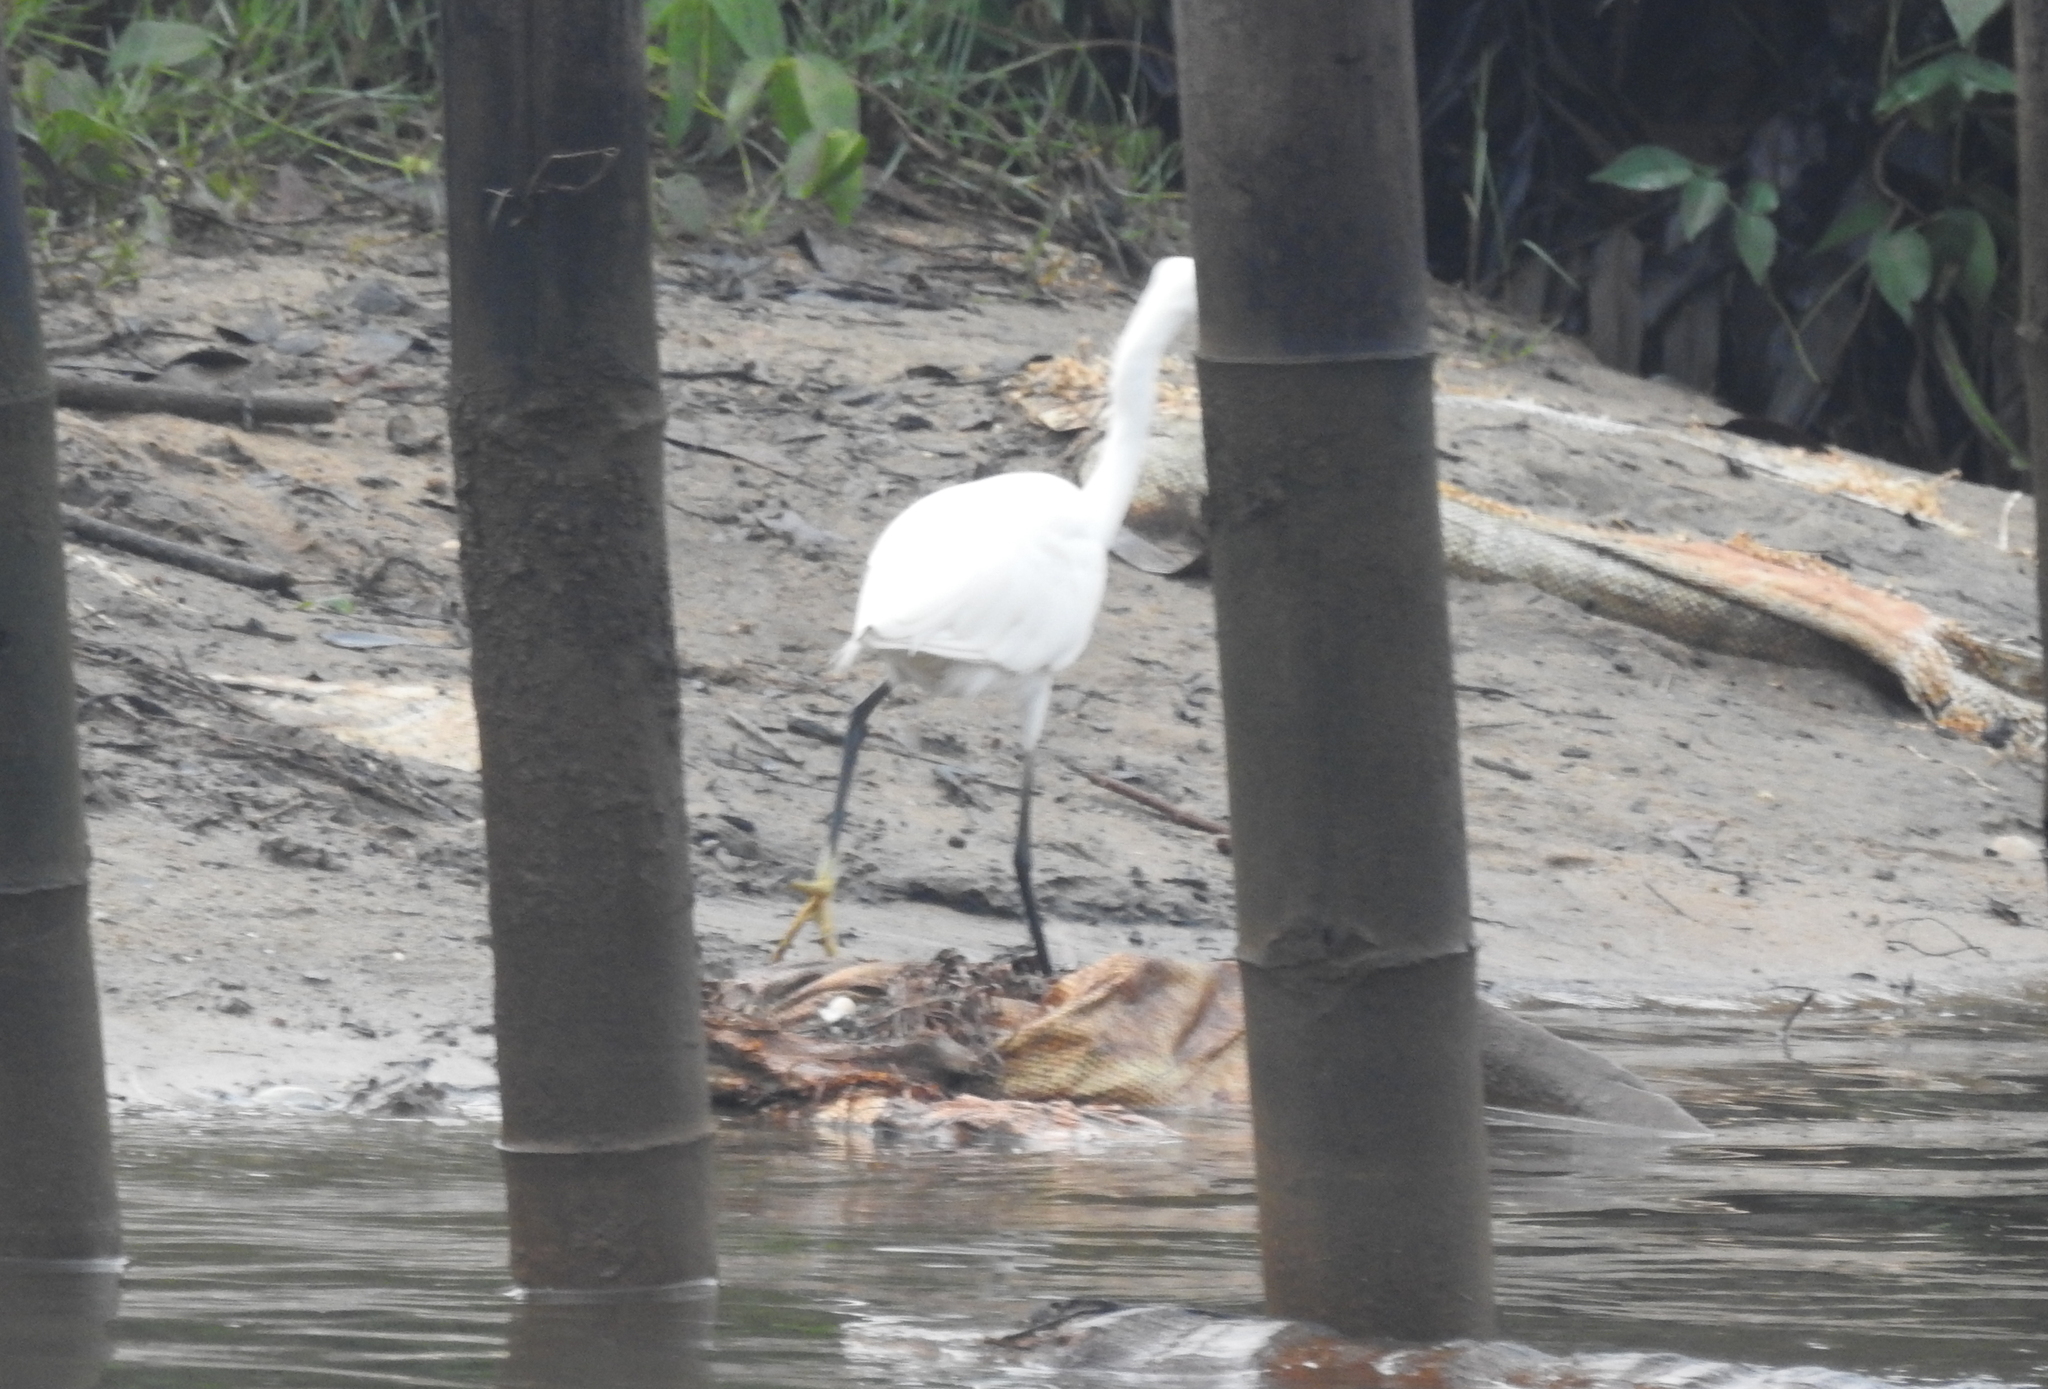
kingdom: Animalia
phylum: Chordata
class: Aves
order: Pelecaniformes
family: Ardeidae
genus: Egretta
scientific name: Egretta garzetta
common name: Little egret
